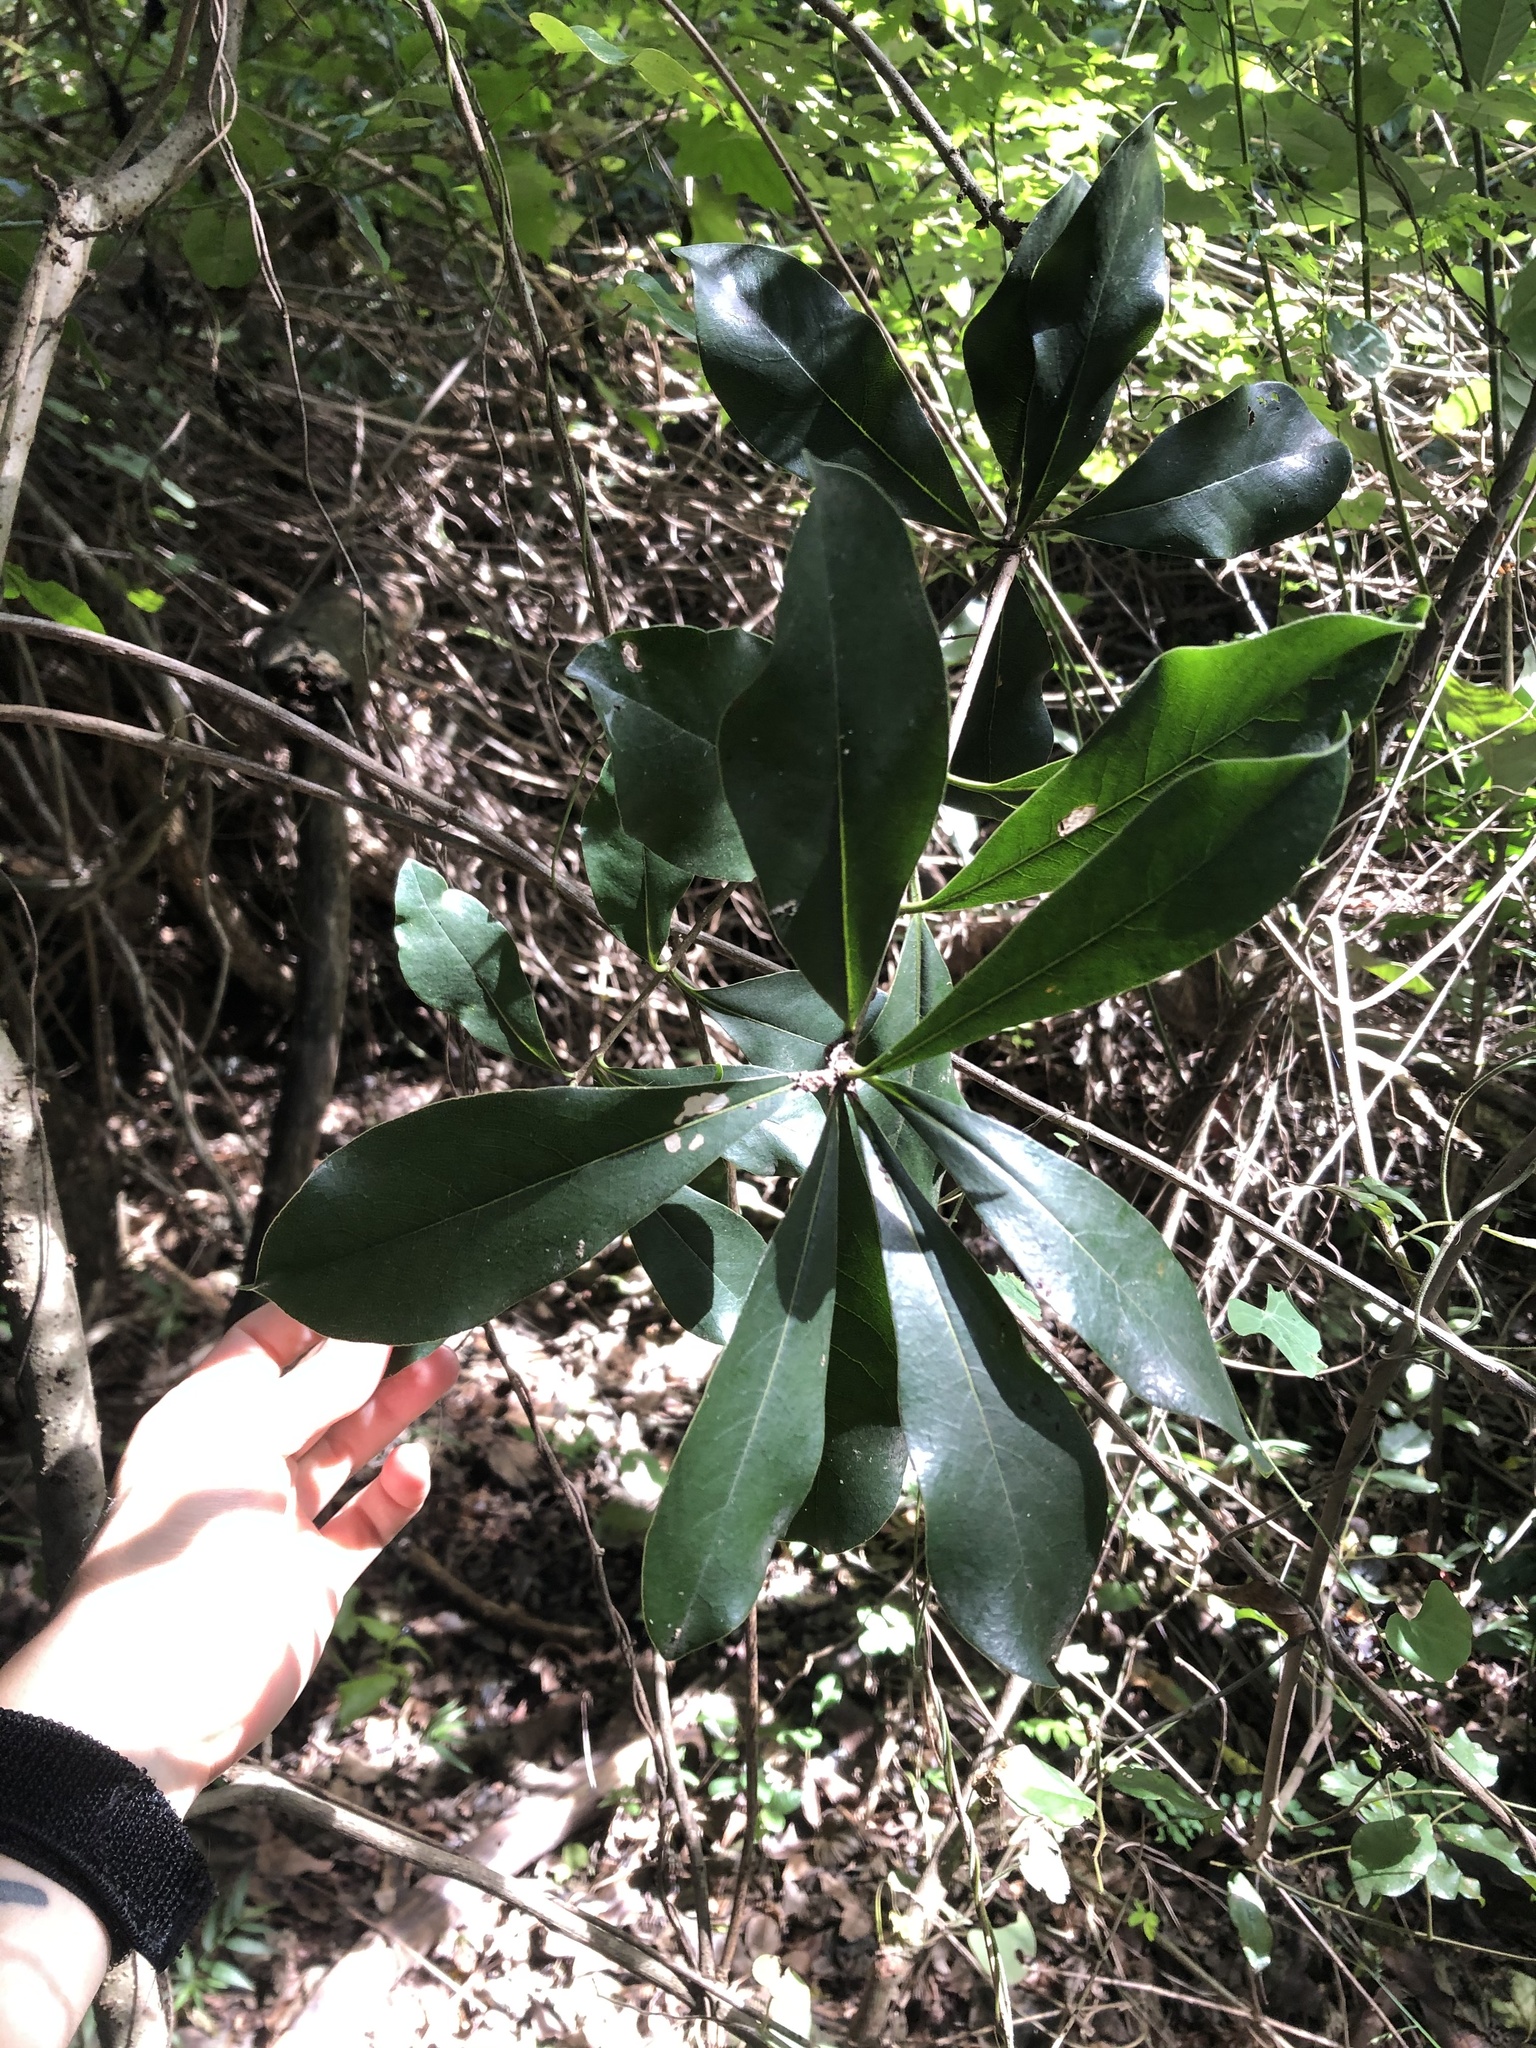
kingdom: Plantae
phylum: Tracheophyta
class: Magnoliopsida
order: Apiales
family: Pittosporaceae
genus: Pittosporum
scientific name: Pittosporum viridiflorum
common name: Cape cheesewood
